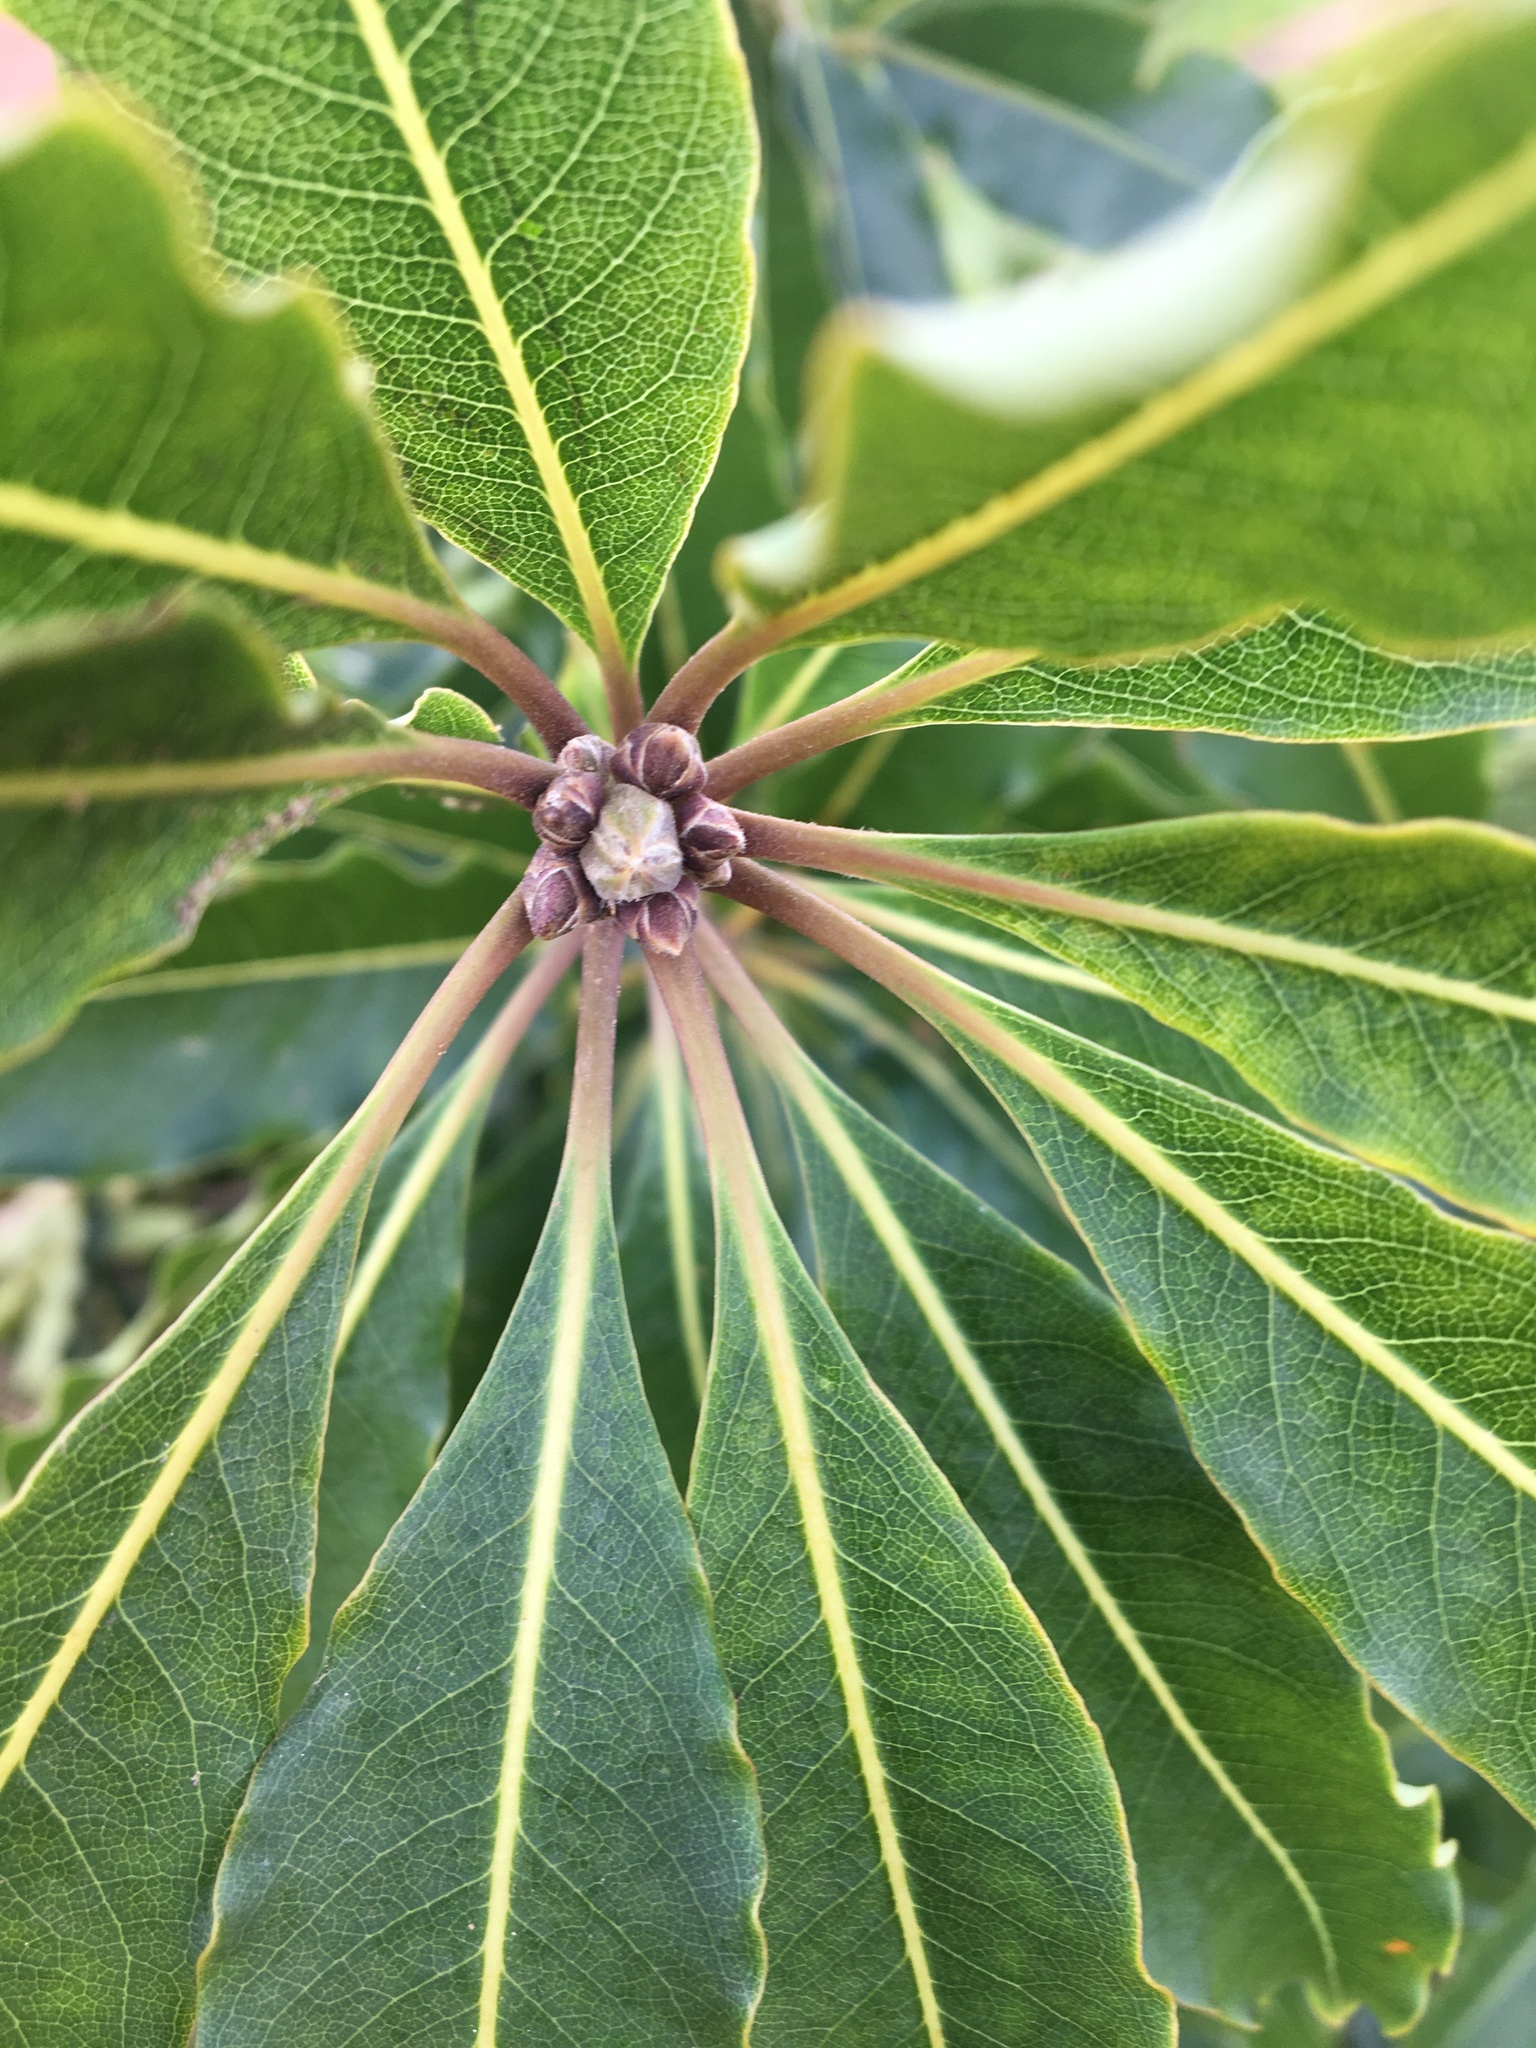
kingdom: Plantae
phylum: Tracheophyta
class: Magnoliopsida
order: Apiales
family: Pittosporaceae
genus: Pittosporum
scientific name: Pittosporum undulatum
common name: Australian cheesewood
